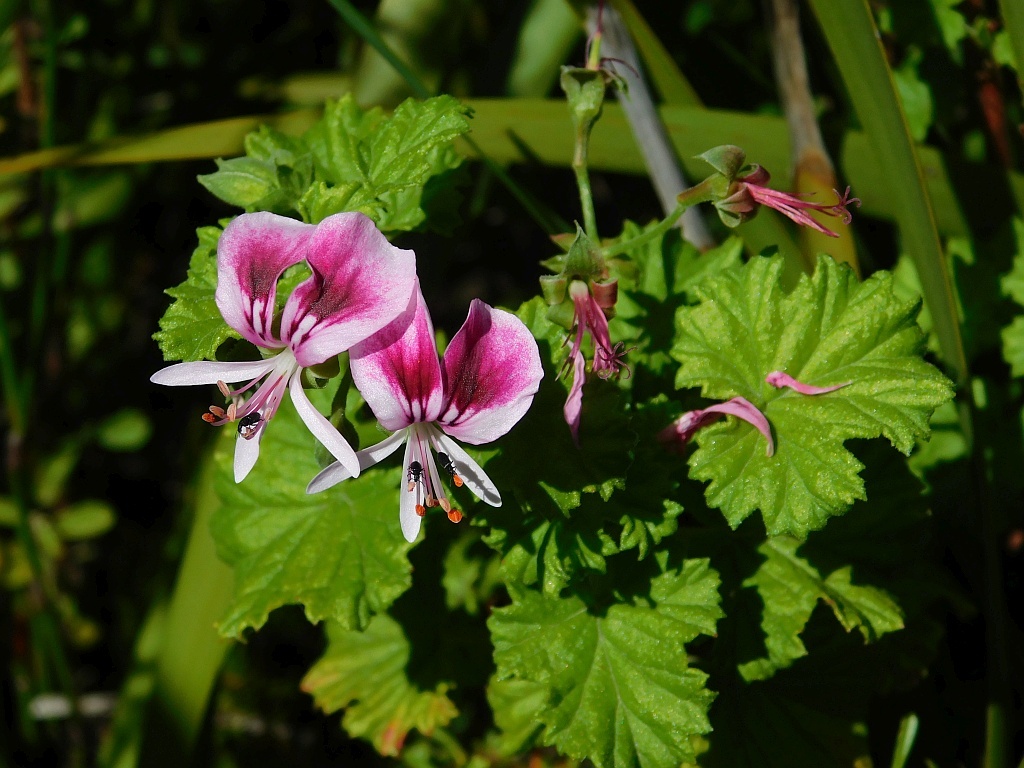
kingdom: Plantae
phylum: Tracheophyta
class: Magnoliopsida
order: Geraniales
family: Geraniaceae
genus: Pelargonium
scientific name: Pelargonium greytonense
